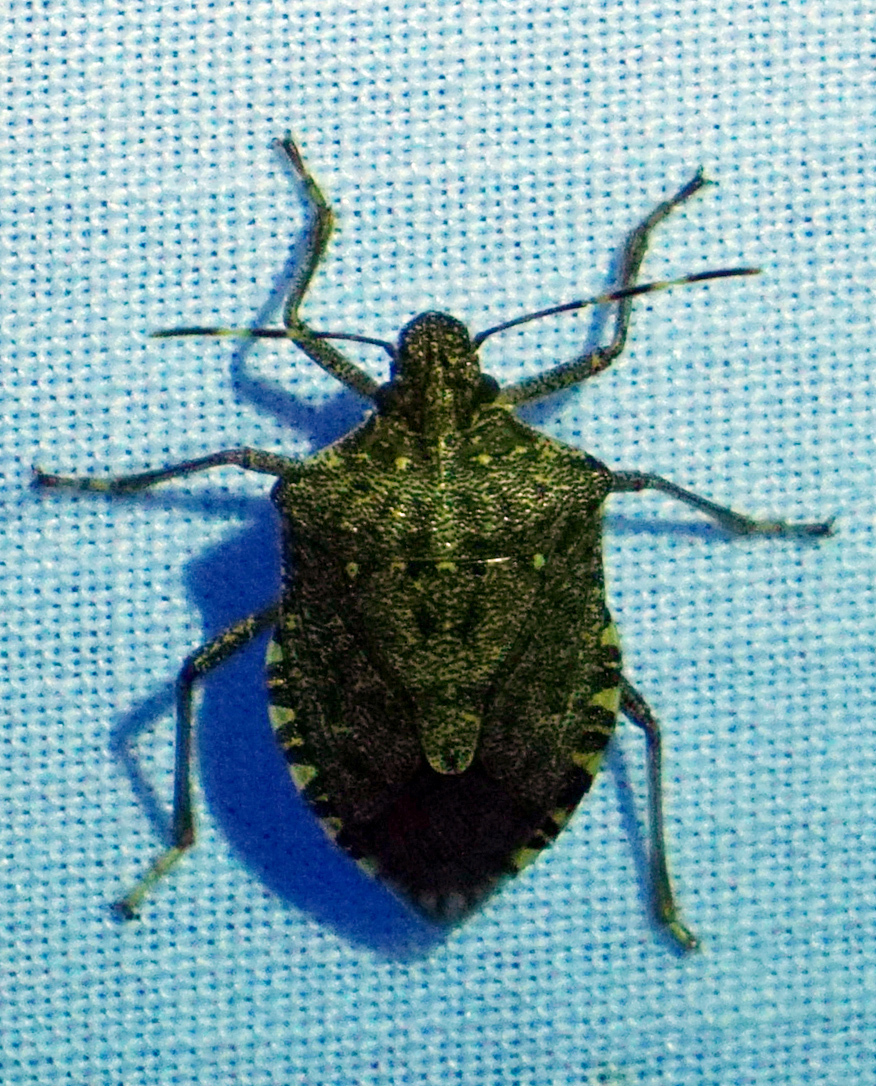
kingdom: Animalia
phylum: Arthropoda
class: Insecta
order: Hemiptera
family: Pentatomidae
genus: Halyomorpha
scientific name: Halyomorpha halys
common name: Brown marmorated stink bug
